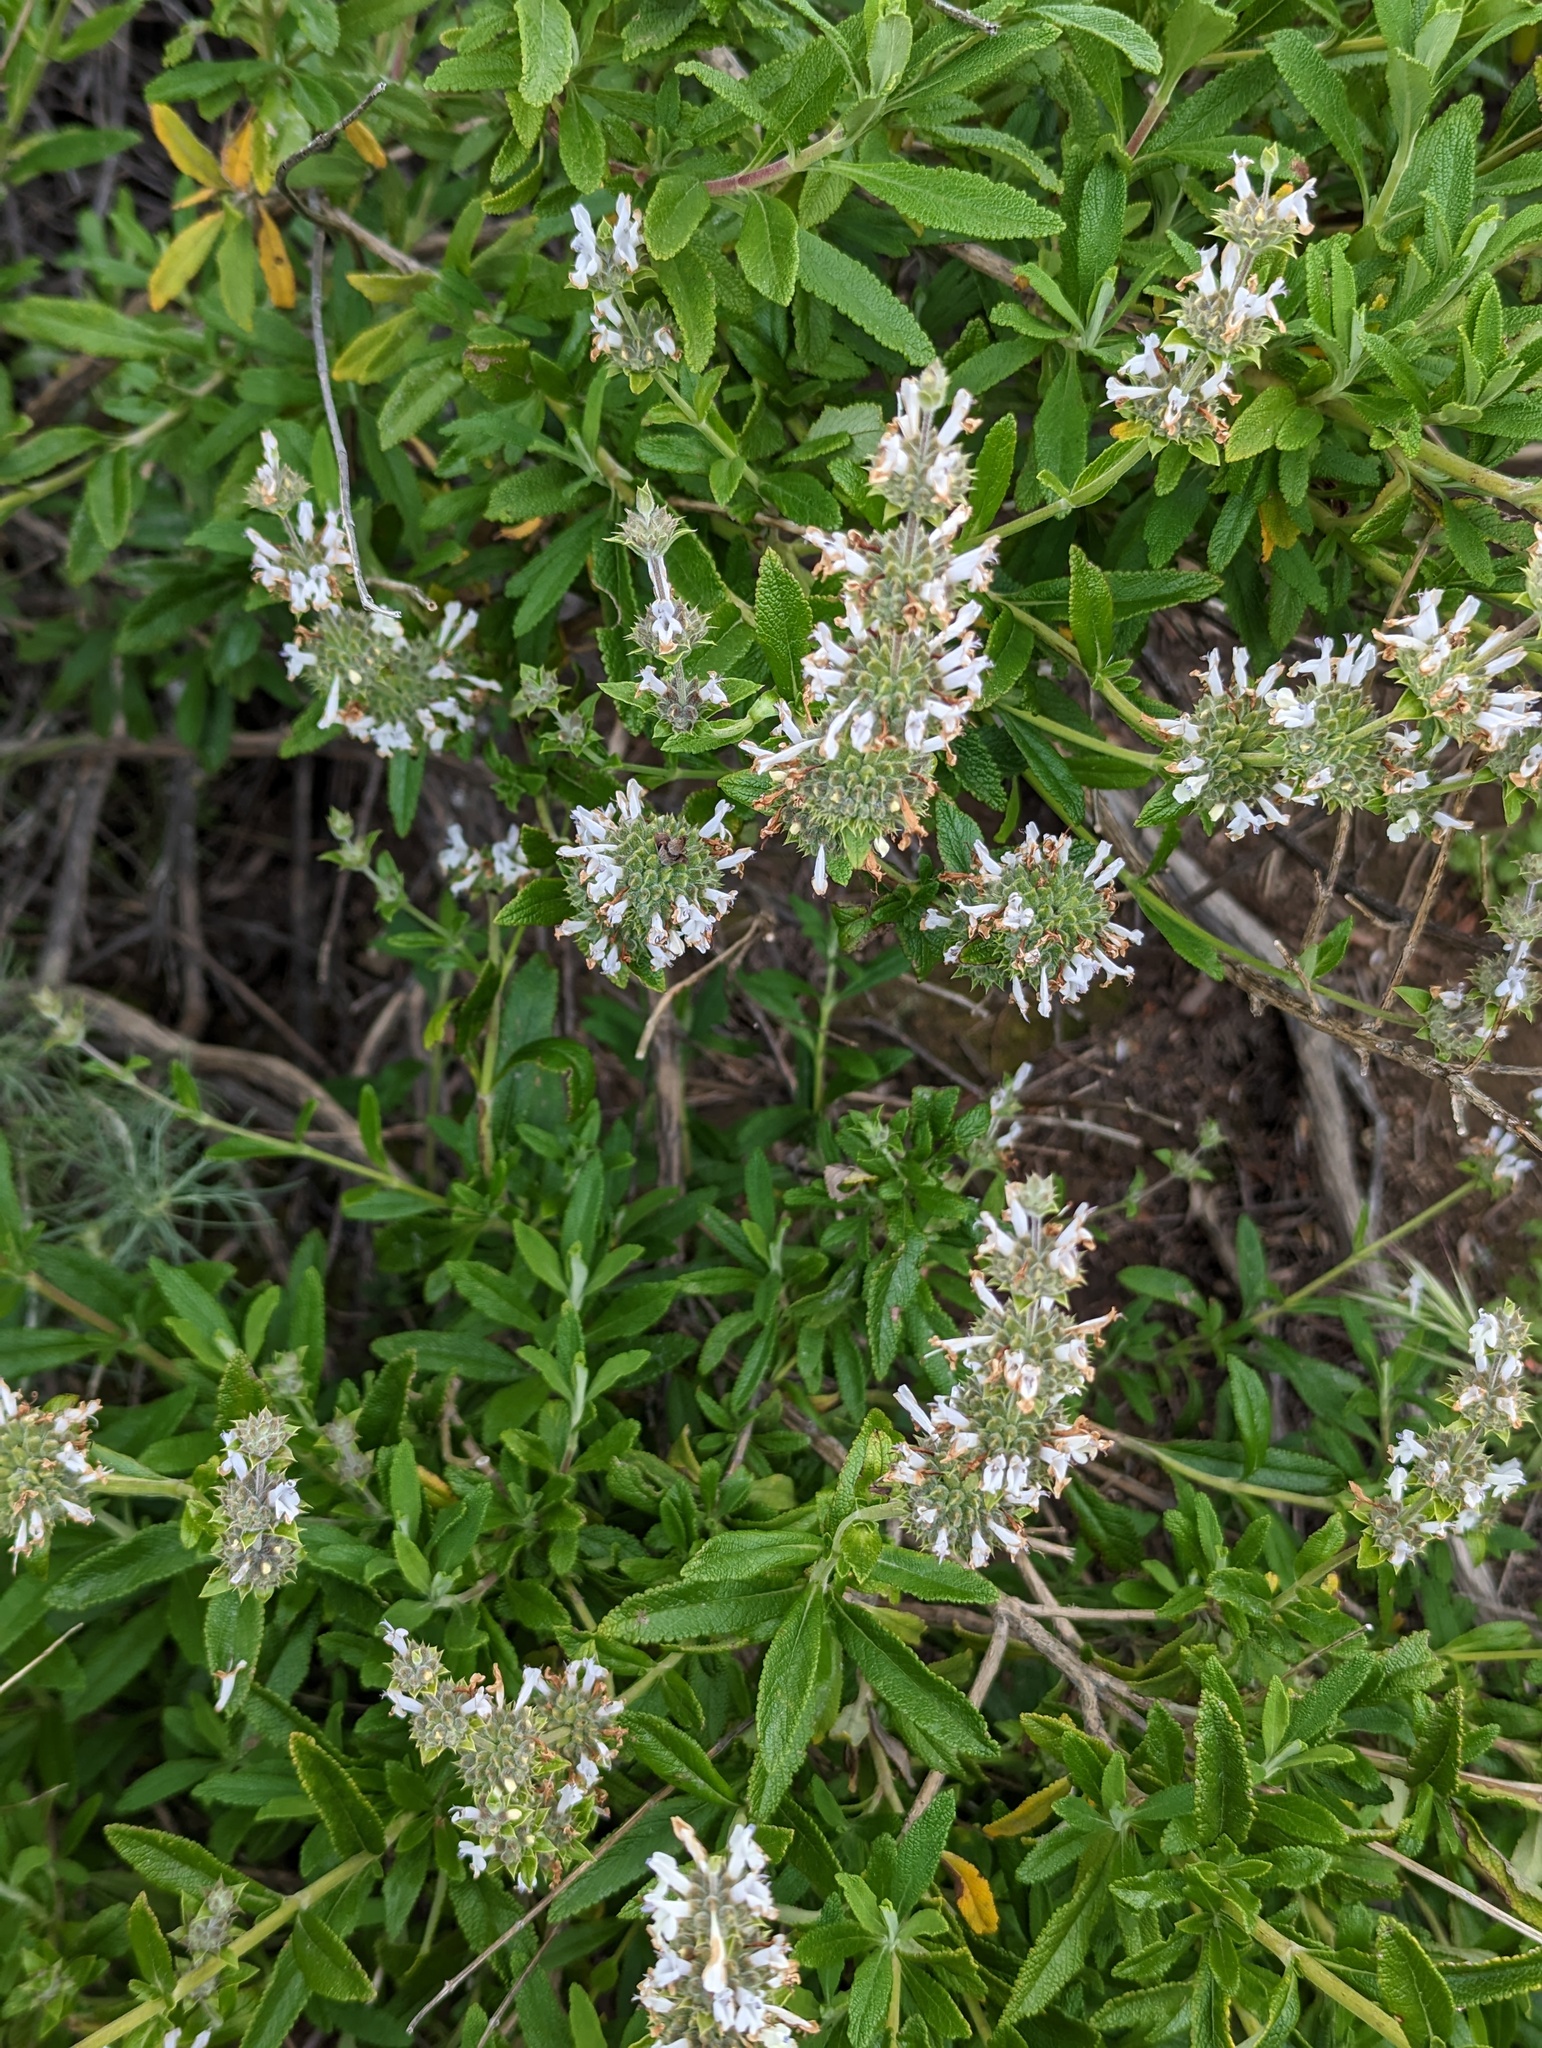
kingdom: Plantae
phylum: Tracheophyta
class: Magnoliopsida
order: Lamiales
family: Lamiaceae
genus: Salvia
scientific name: Salvia mellifera
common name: Black sage
